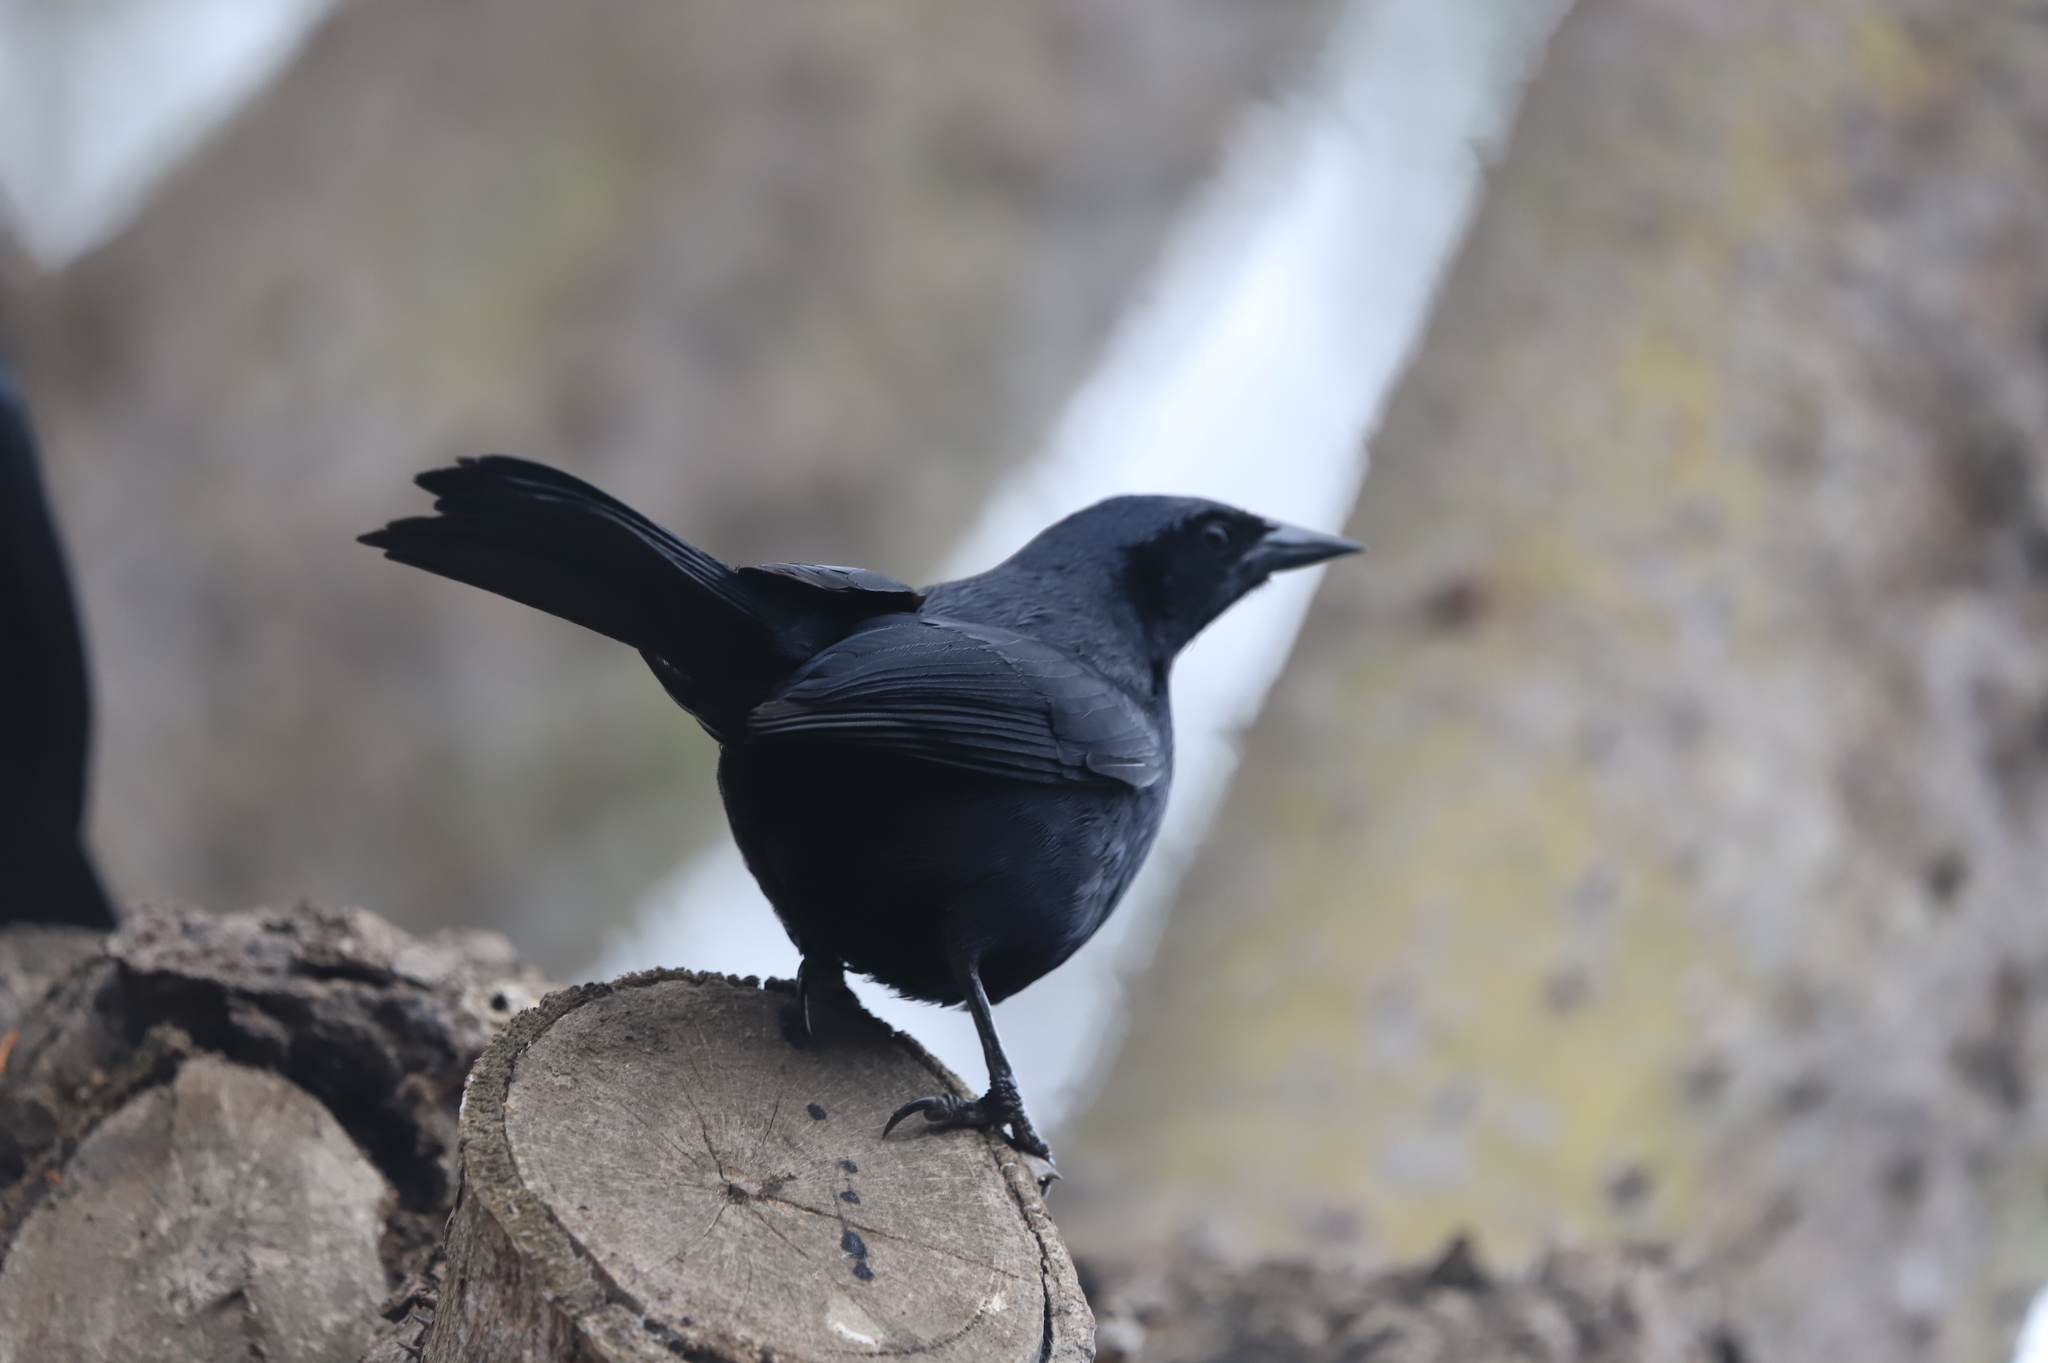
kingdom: Animalia
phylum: Chordata
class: Aves
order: Passeriformes
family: Icteridae
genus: Dives
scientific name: Dives warczewiczi
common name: Scrub blackbird
